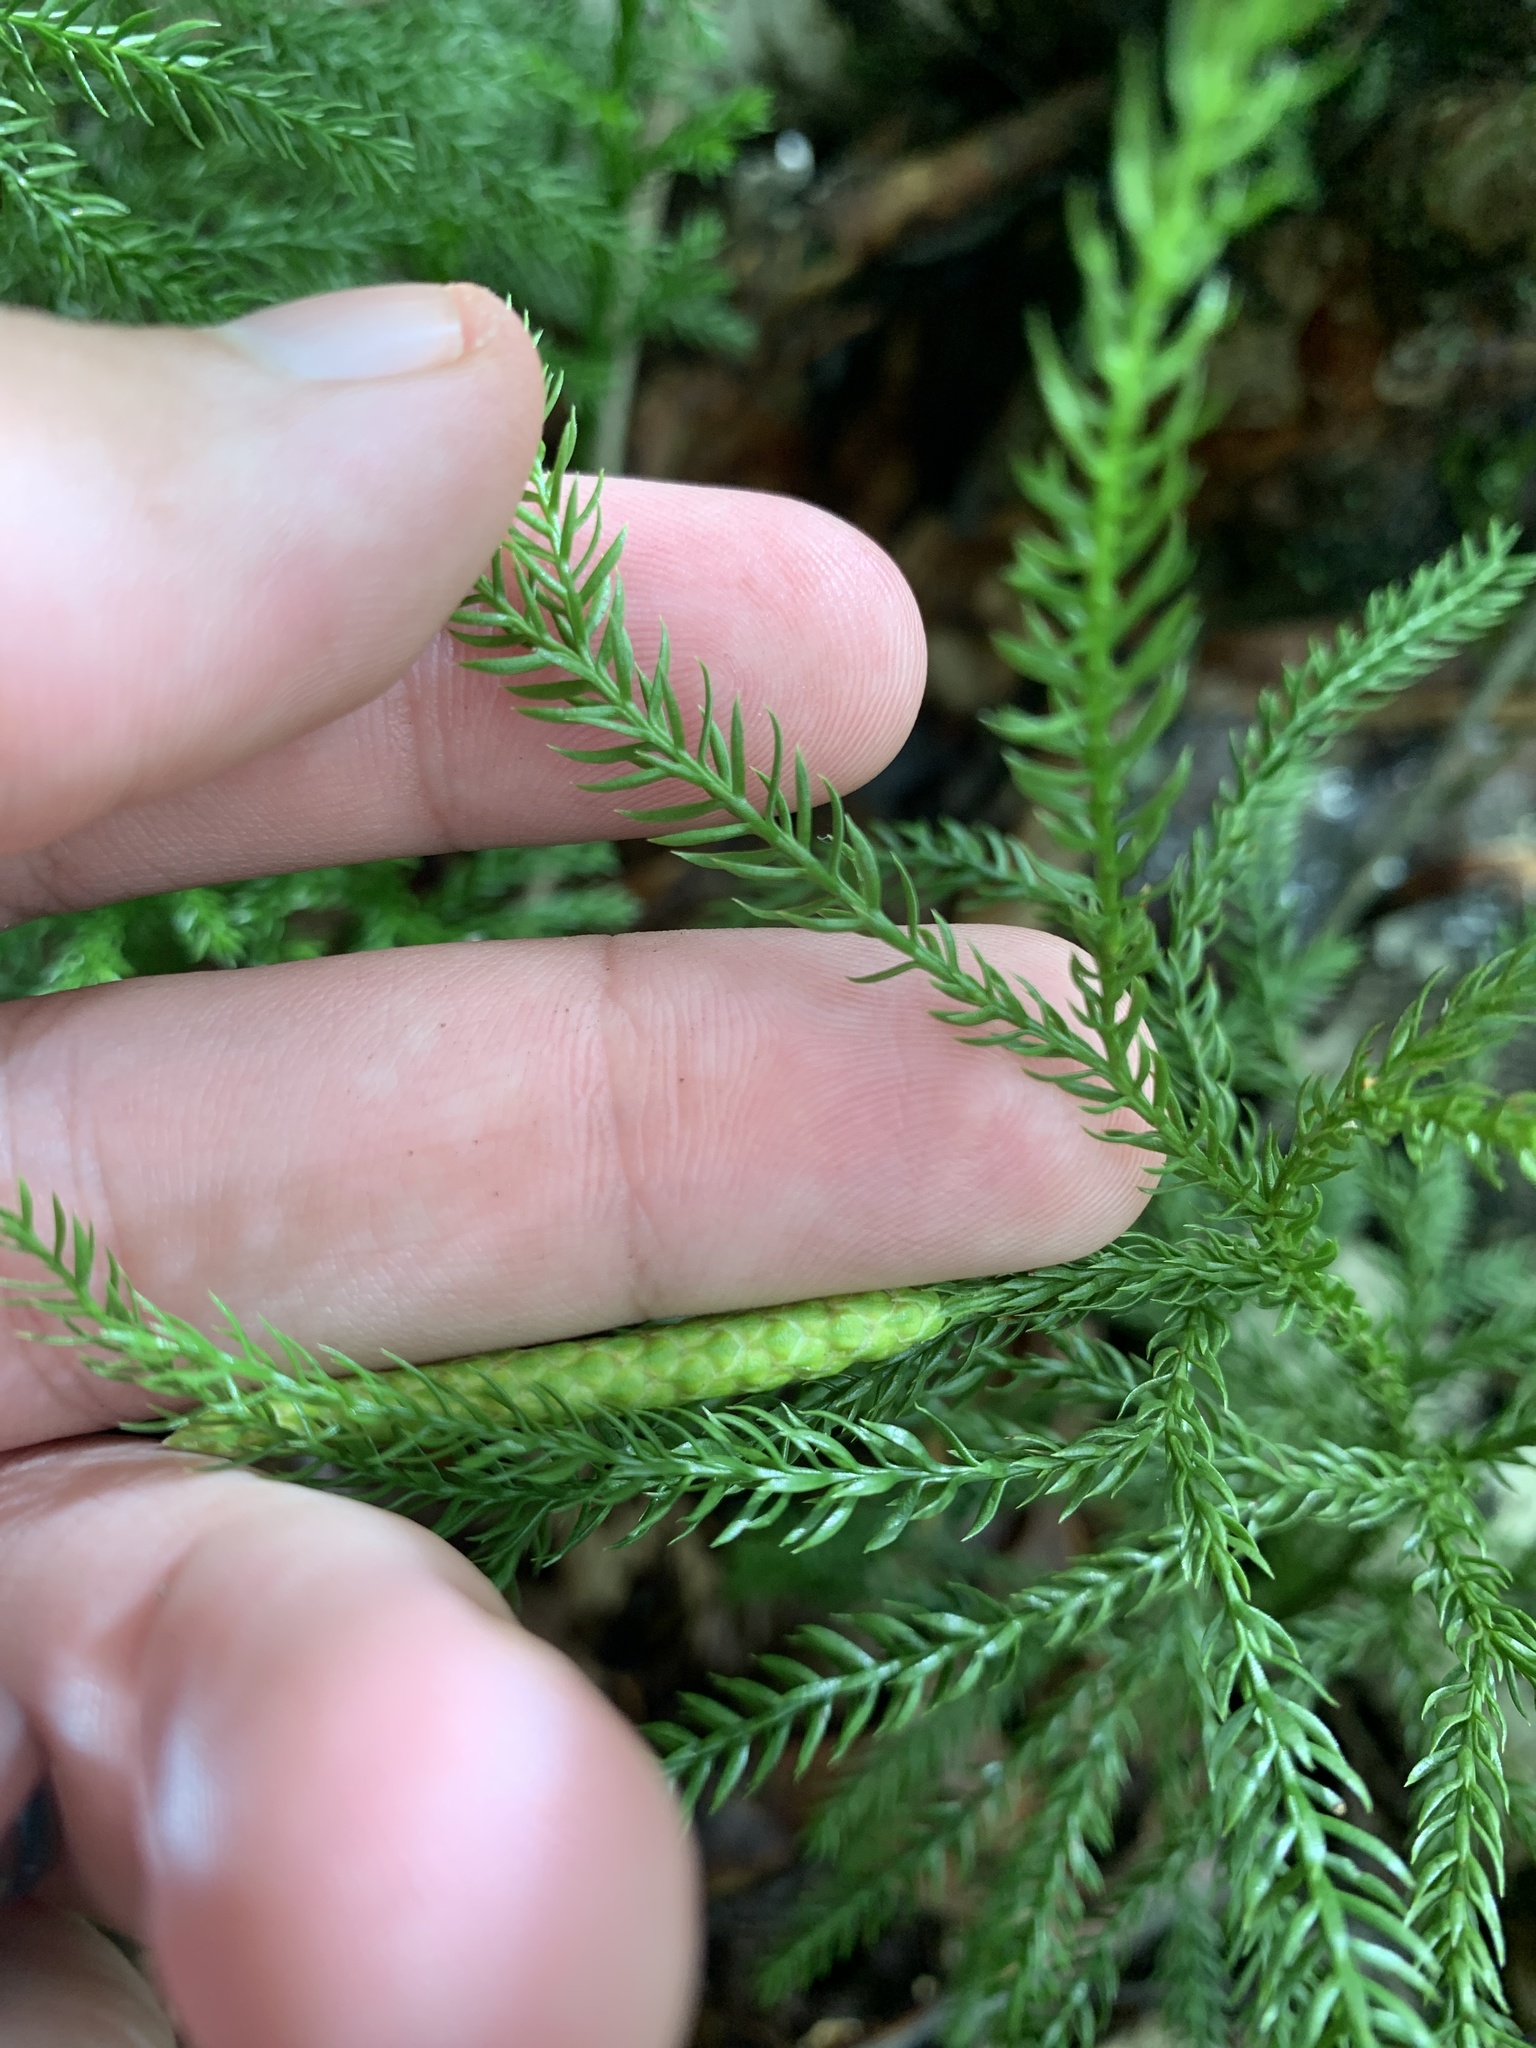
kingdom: Plantae
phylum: Tracheophyta
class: Lycopodiopsida
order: Lycopodiales
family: Lycopodiaceae
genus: Dendrolycopodium
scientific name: Dendrolycopodium hickeyi
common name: Hickey's clubmoss
